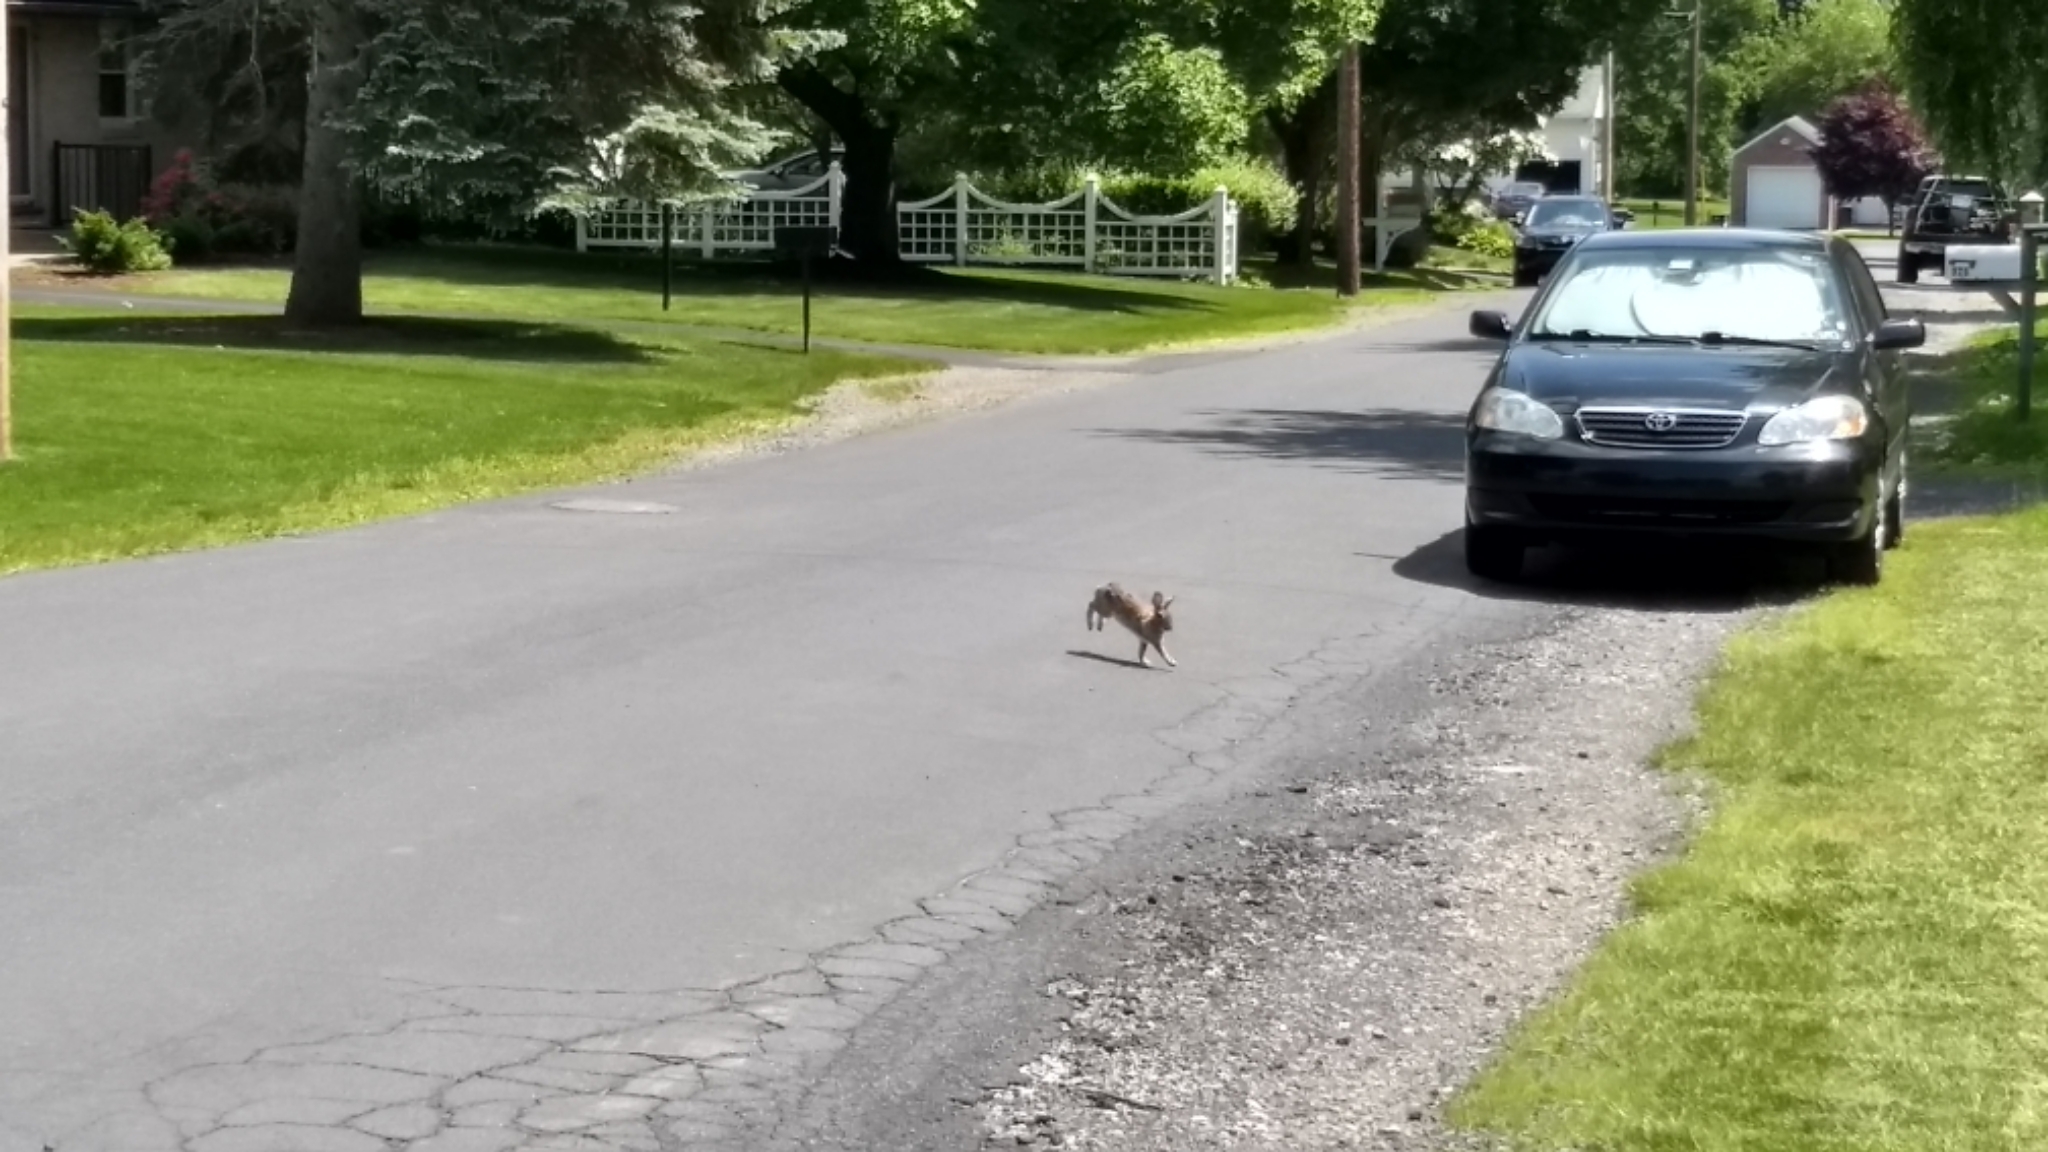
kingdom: Animalia
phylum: Chordata
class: Mammalia
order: Lagomorpha
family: Leporidae
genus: Sylvilagus
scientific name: Sylvilagus floridanus
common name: Eastern cottontail
